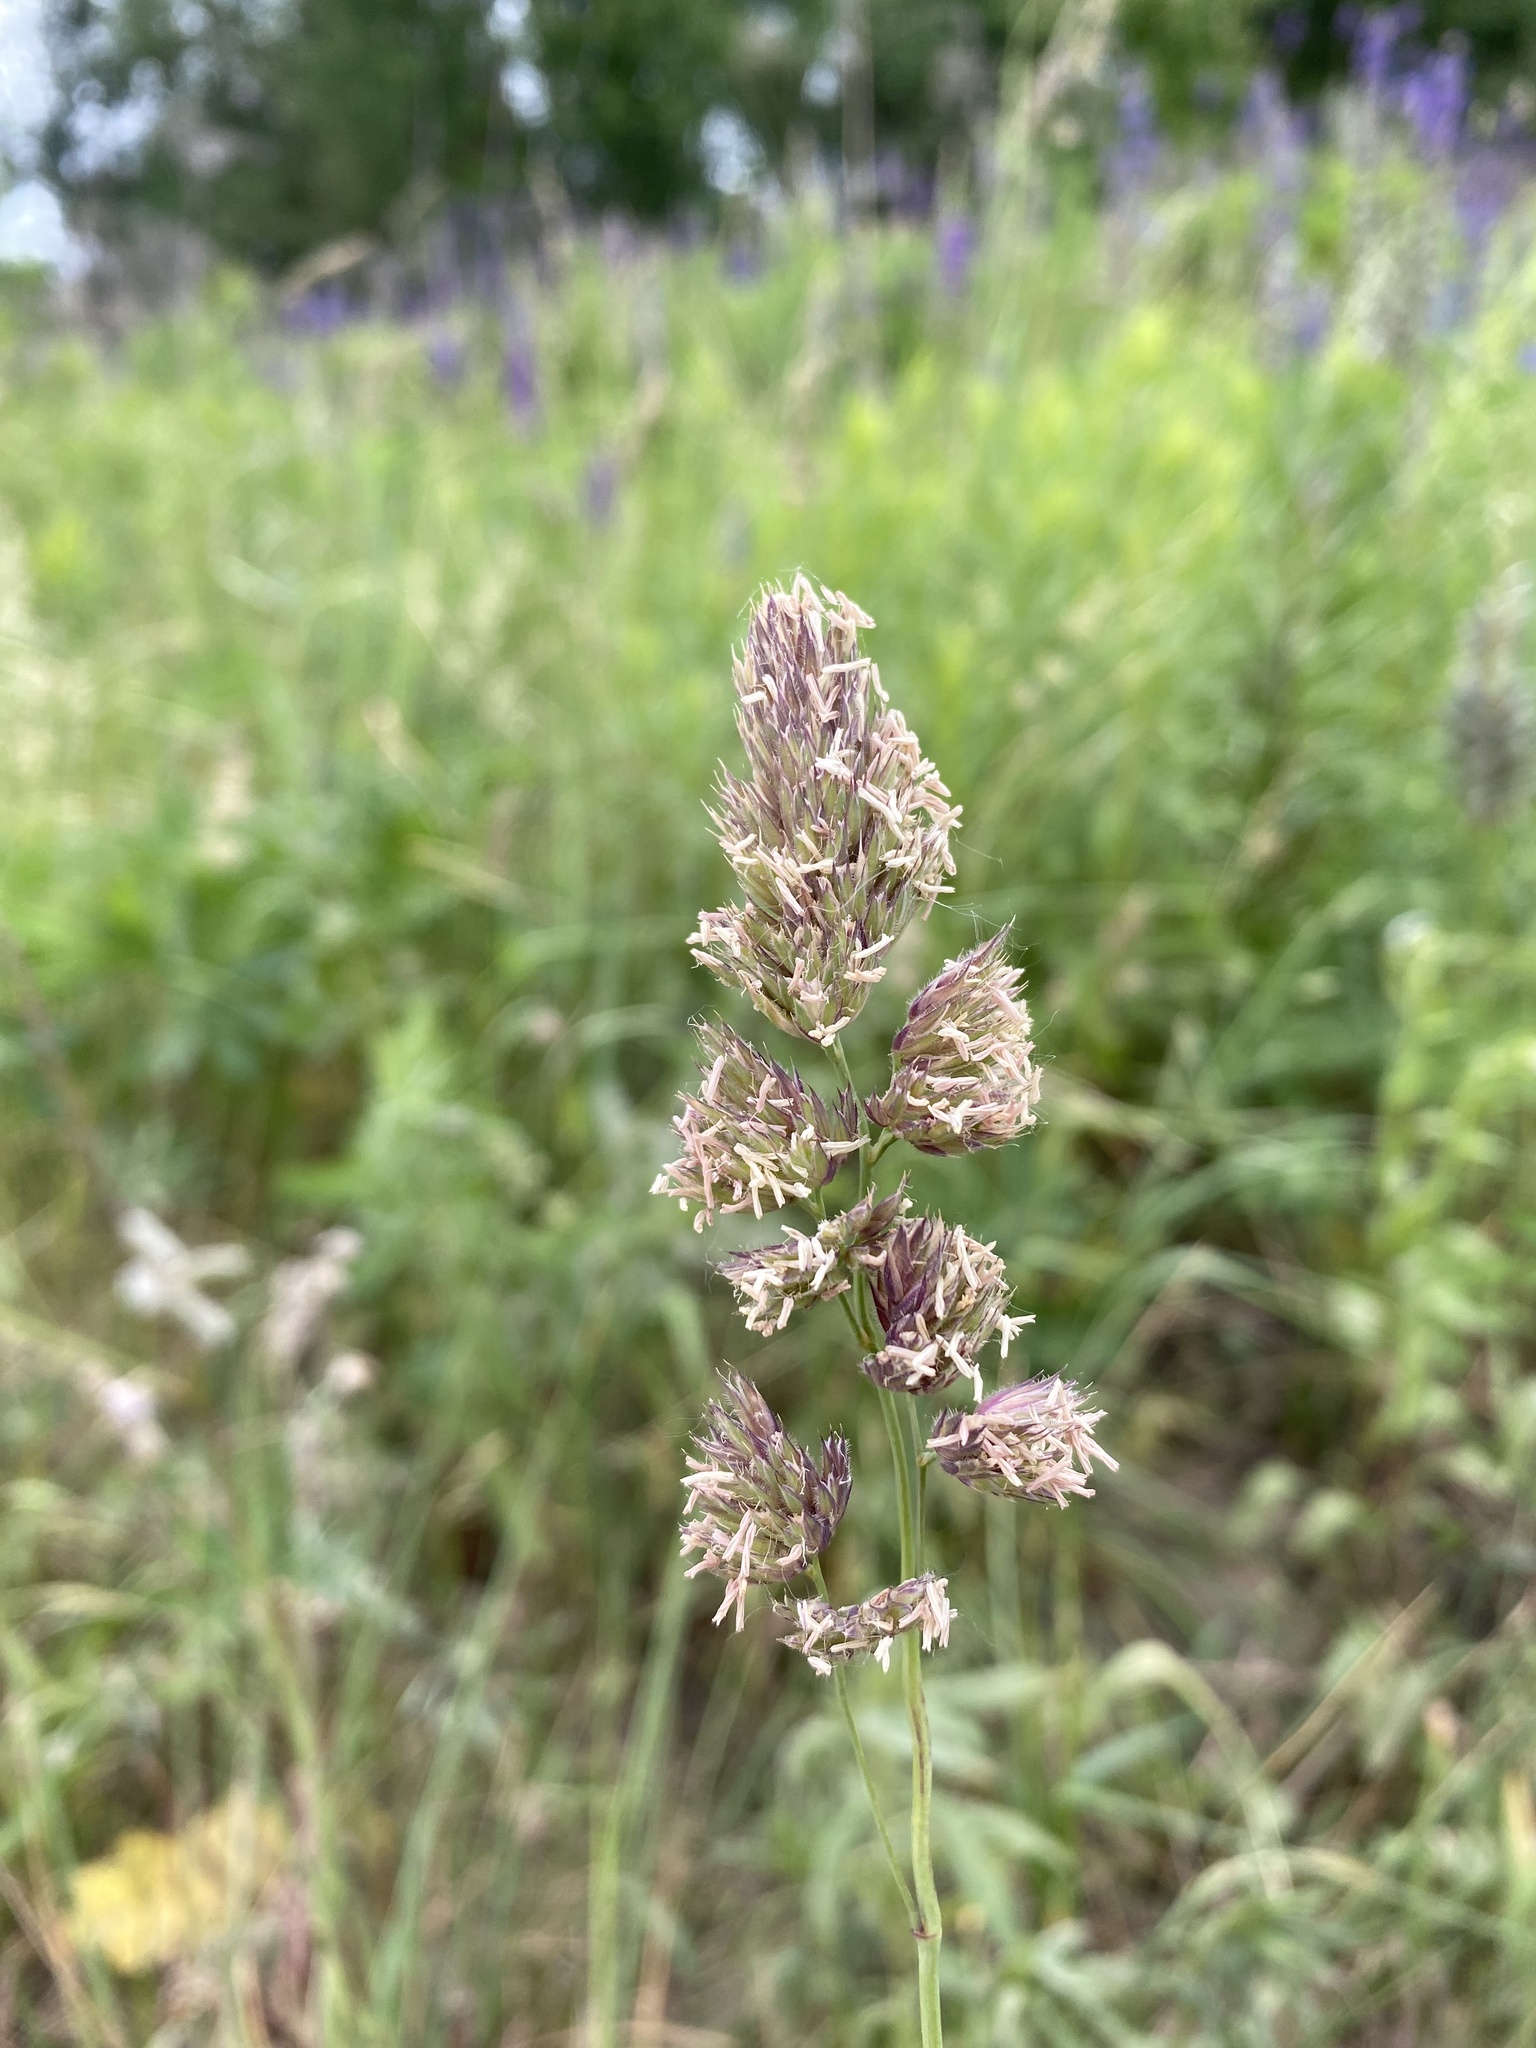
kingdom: Plantae
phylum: Tracheophyta
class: Liliopsida
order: Poales
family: Poaceae
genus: Dactylis
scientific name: Dactylis glomerata
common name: Orchardgrass
